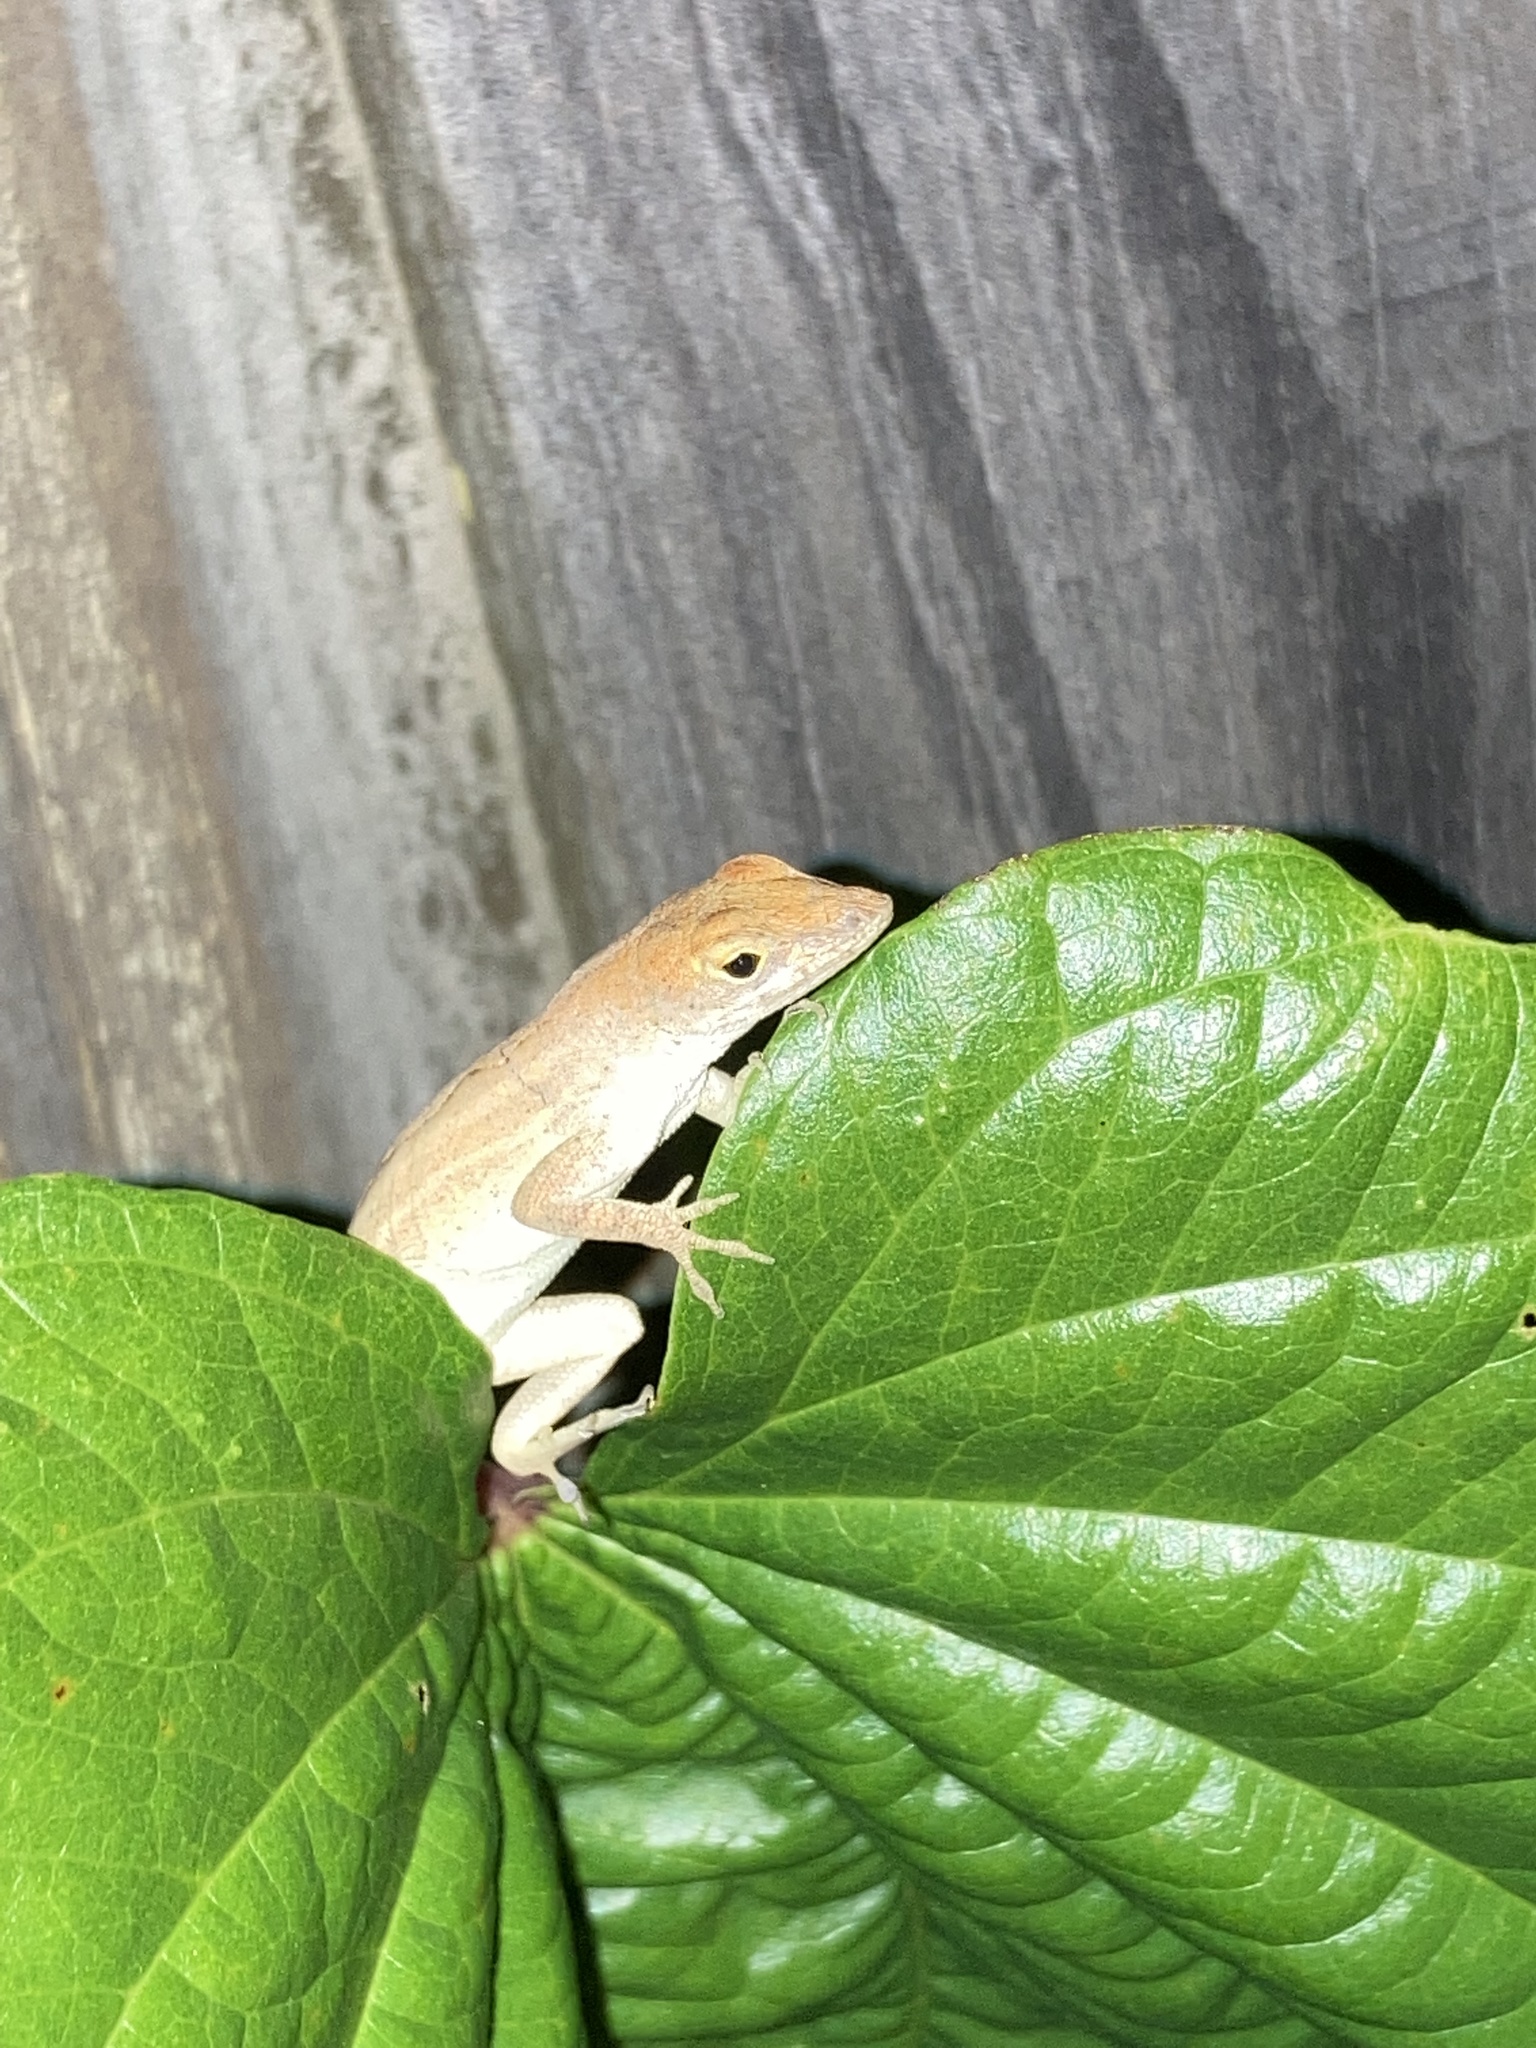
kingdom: Animalia
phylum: Chordata
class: Squamata
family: Dactyloidae
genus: Anolis
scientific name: Anolis sagrei
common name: Brown anole
